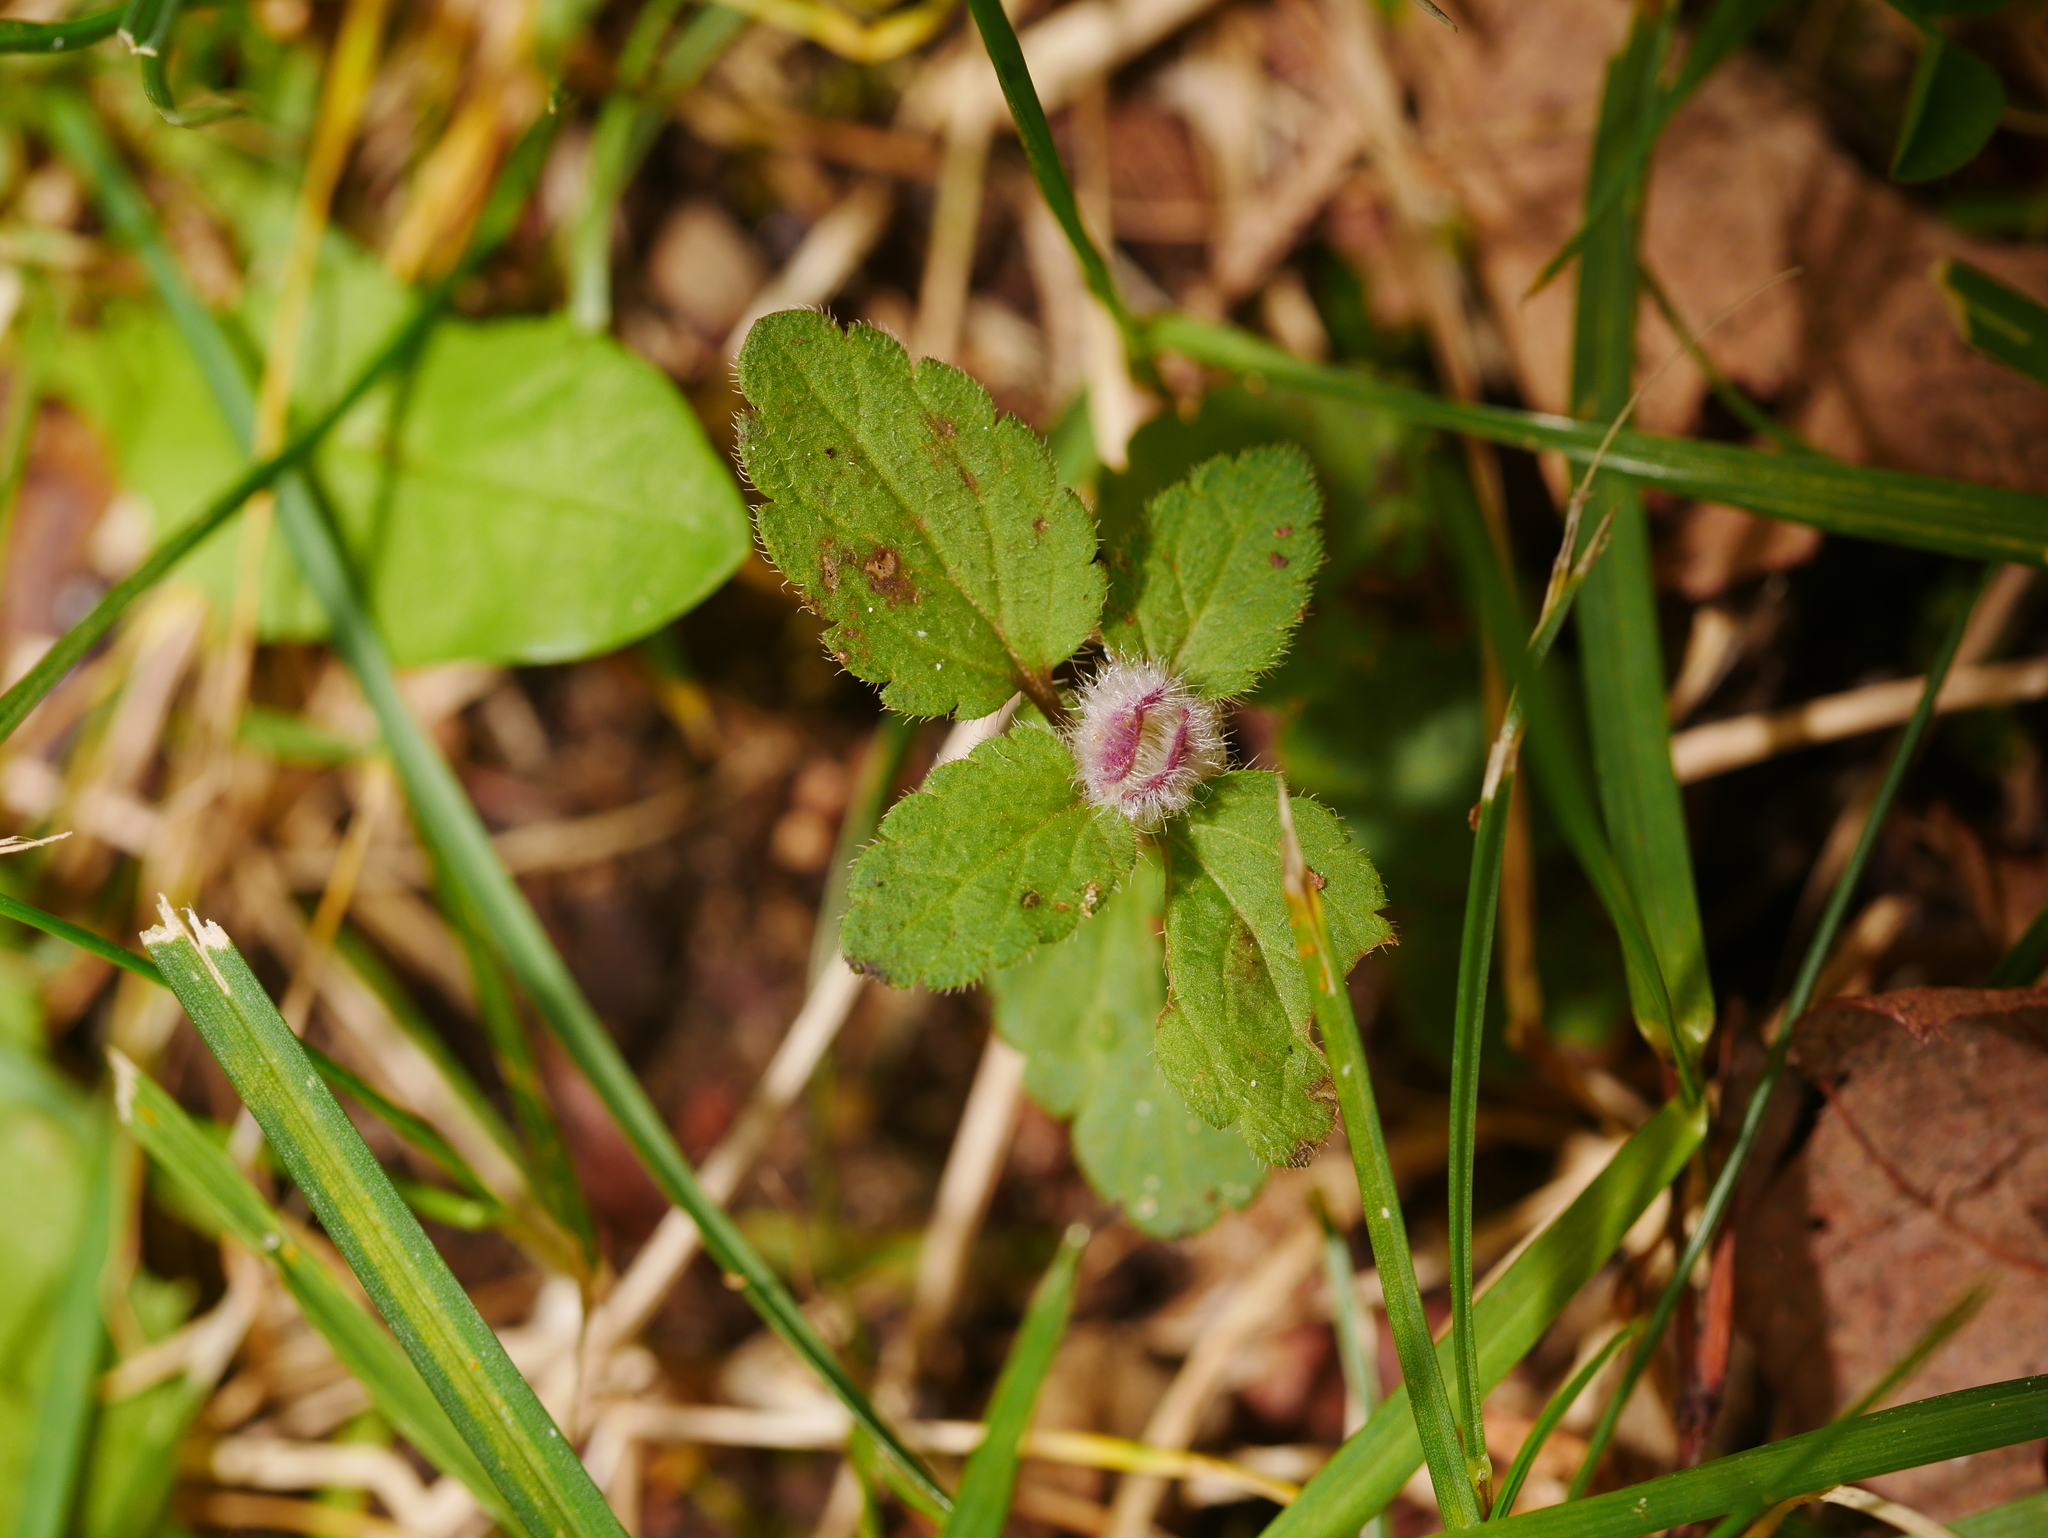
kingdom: Plantae
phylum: Tracheophyta
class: Magnoliopsida
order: Lamiales
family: Plantaginaceae
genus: Veronica
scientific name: Veronica chamaedrys
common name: Germander speedwell
